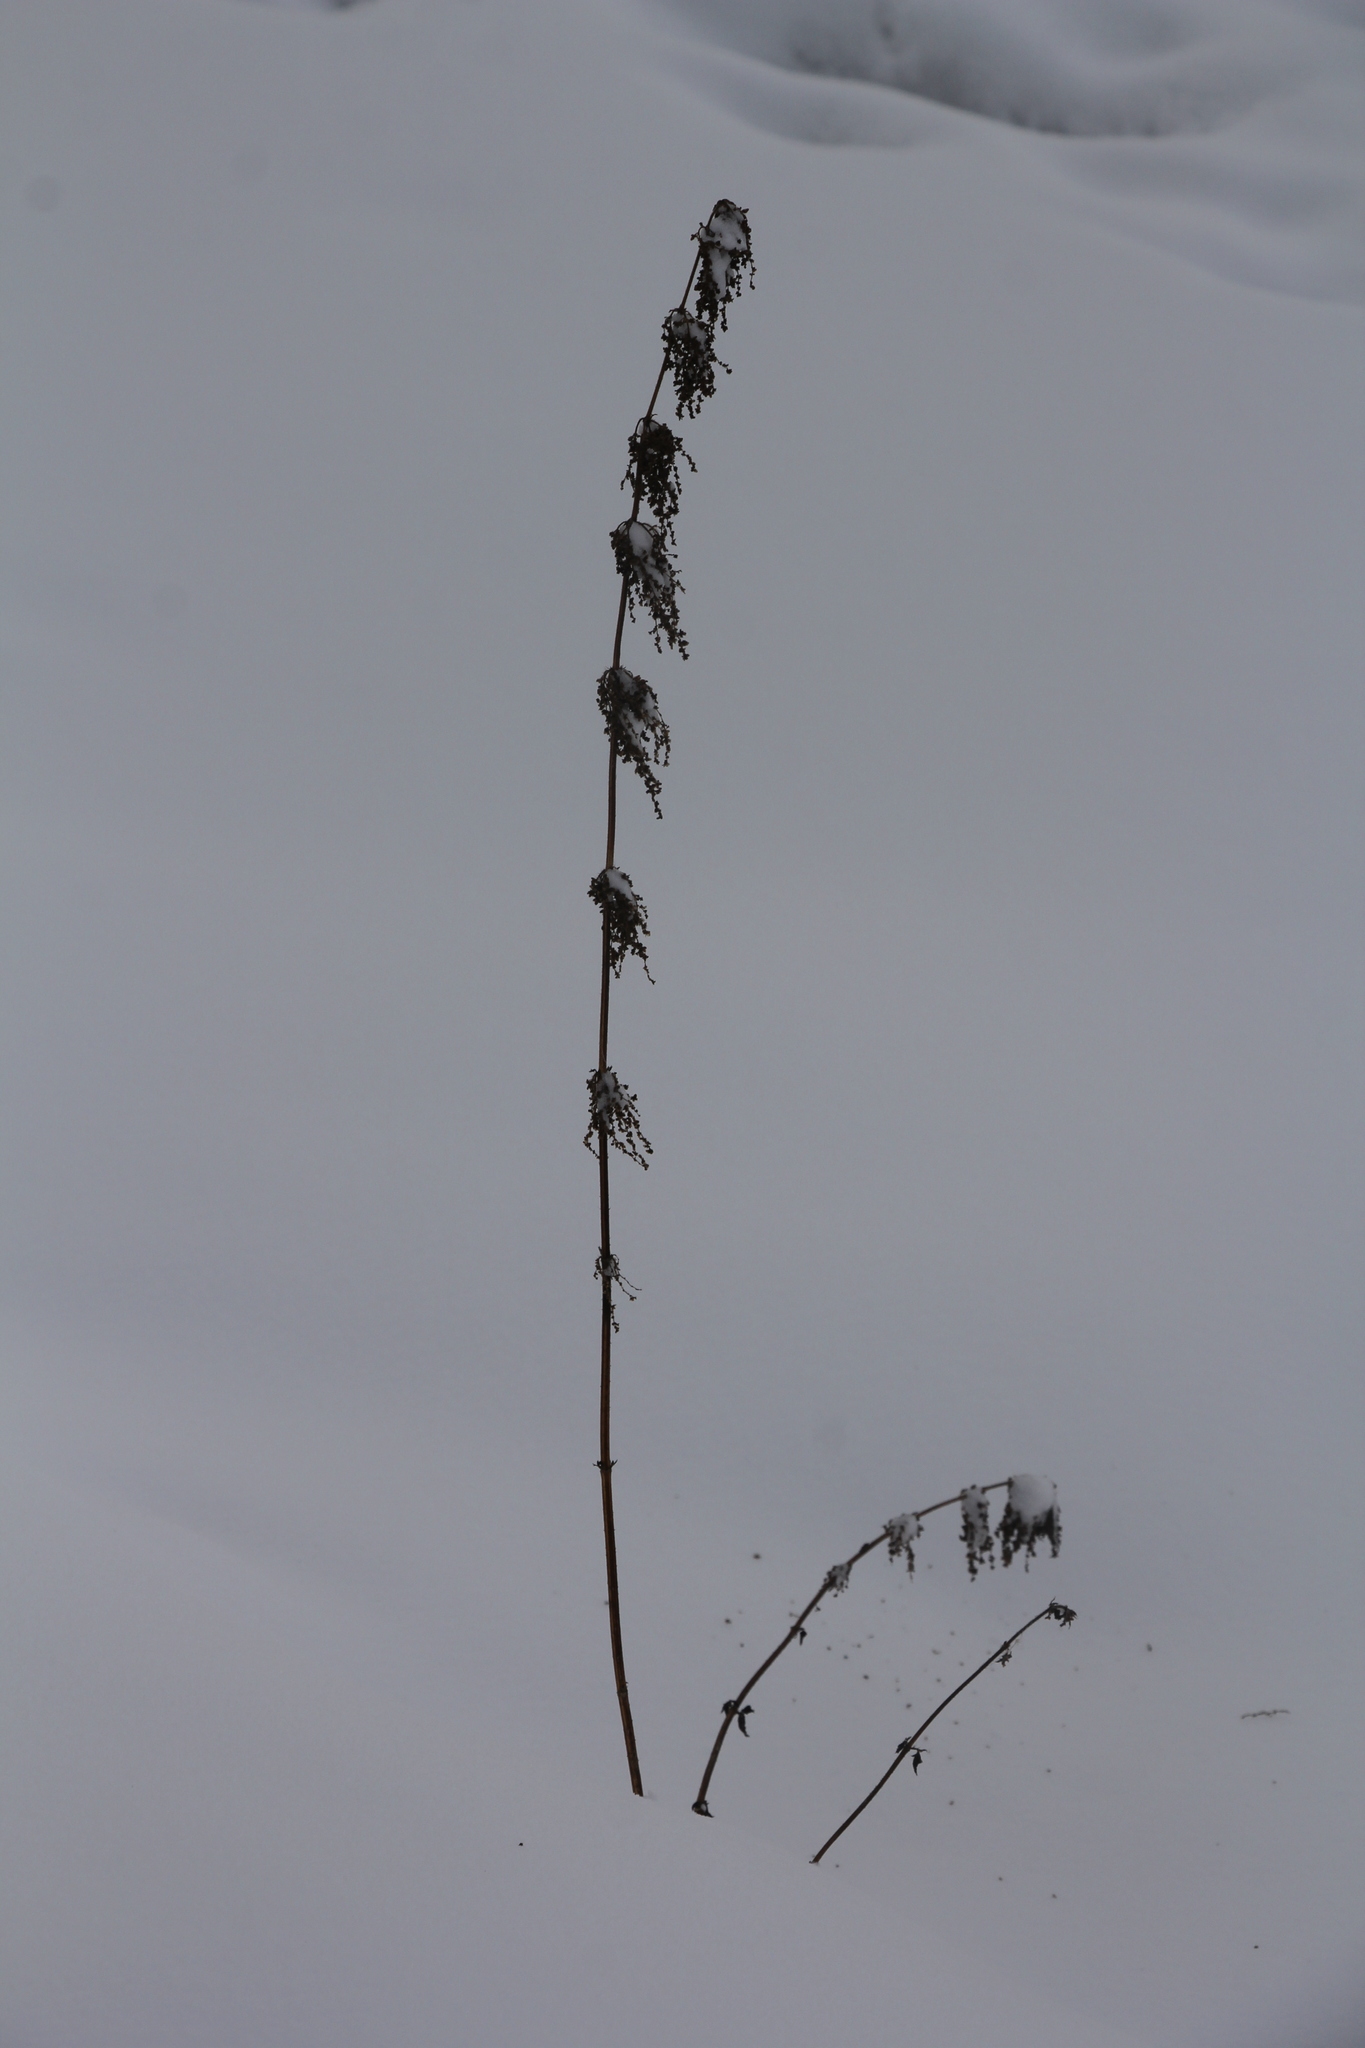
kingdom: Plantae
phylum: Tracheophyta
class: Magnoliopsida
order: Rosales
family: Urticaceae
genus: Urtica
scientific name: Urtica dioica
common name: Common nettle
